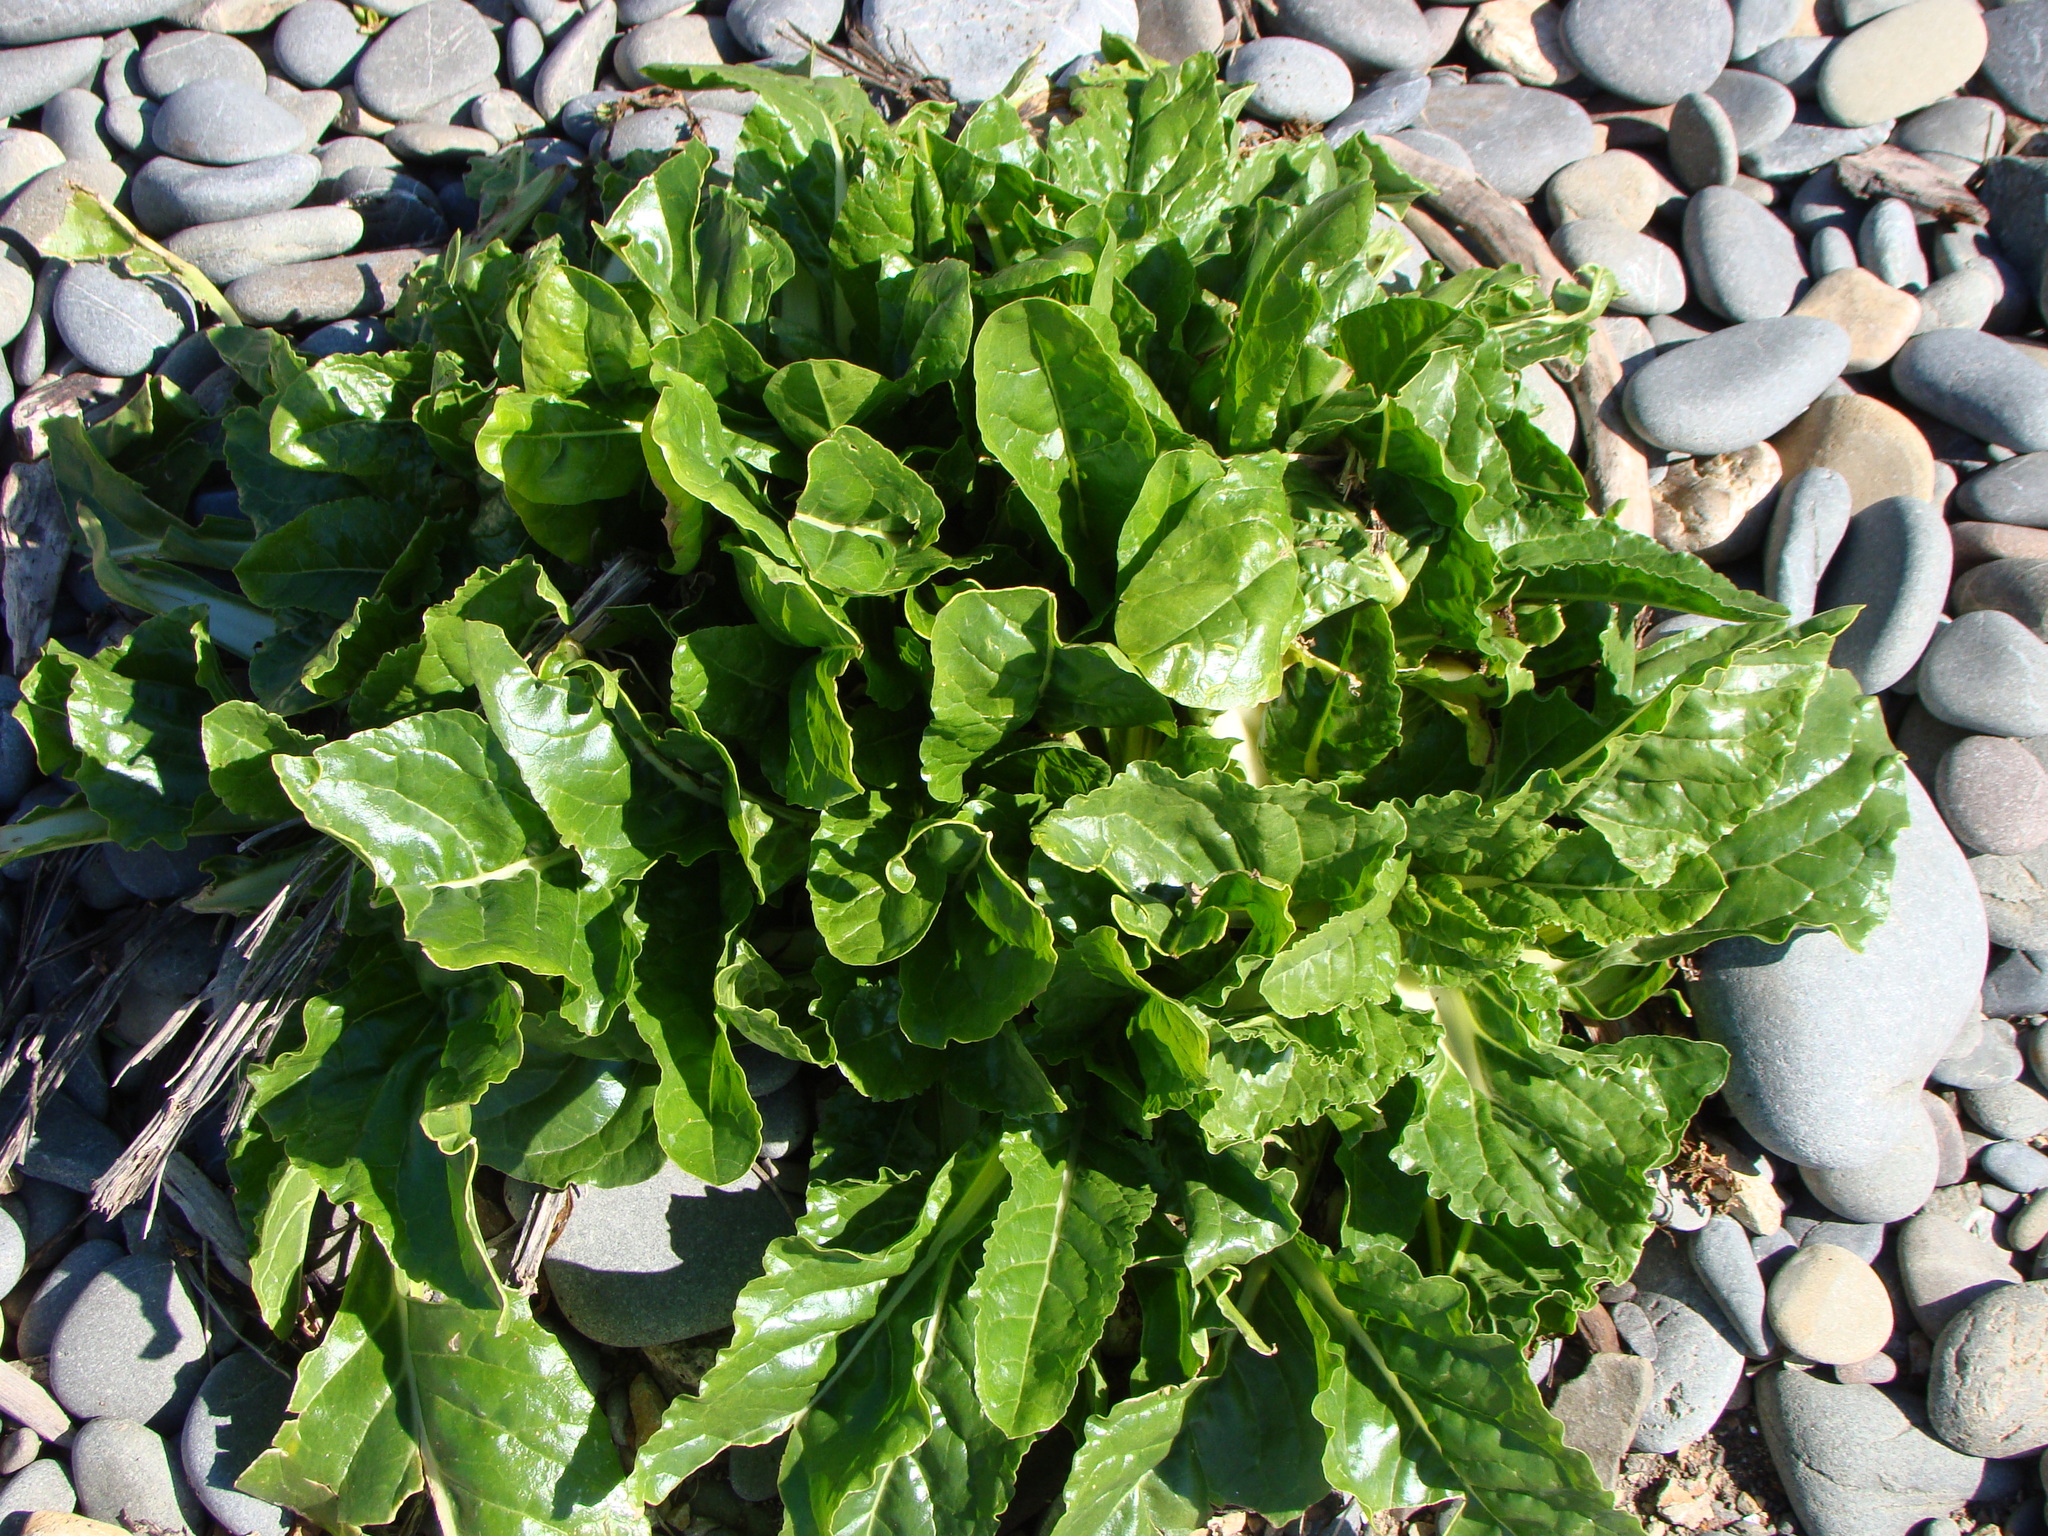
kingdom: Plantae
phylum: Tracheophyta
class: Magnoliopsida
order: Caryophyllales
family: Amaranthaceae
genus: Beta
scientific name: Beta vulgaris
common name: Beet
